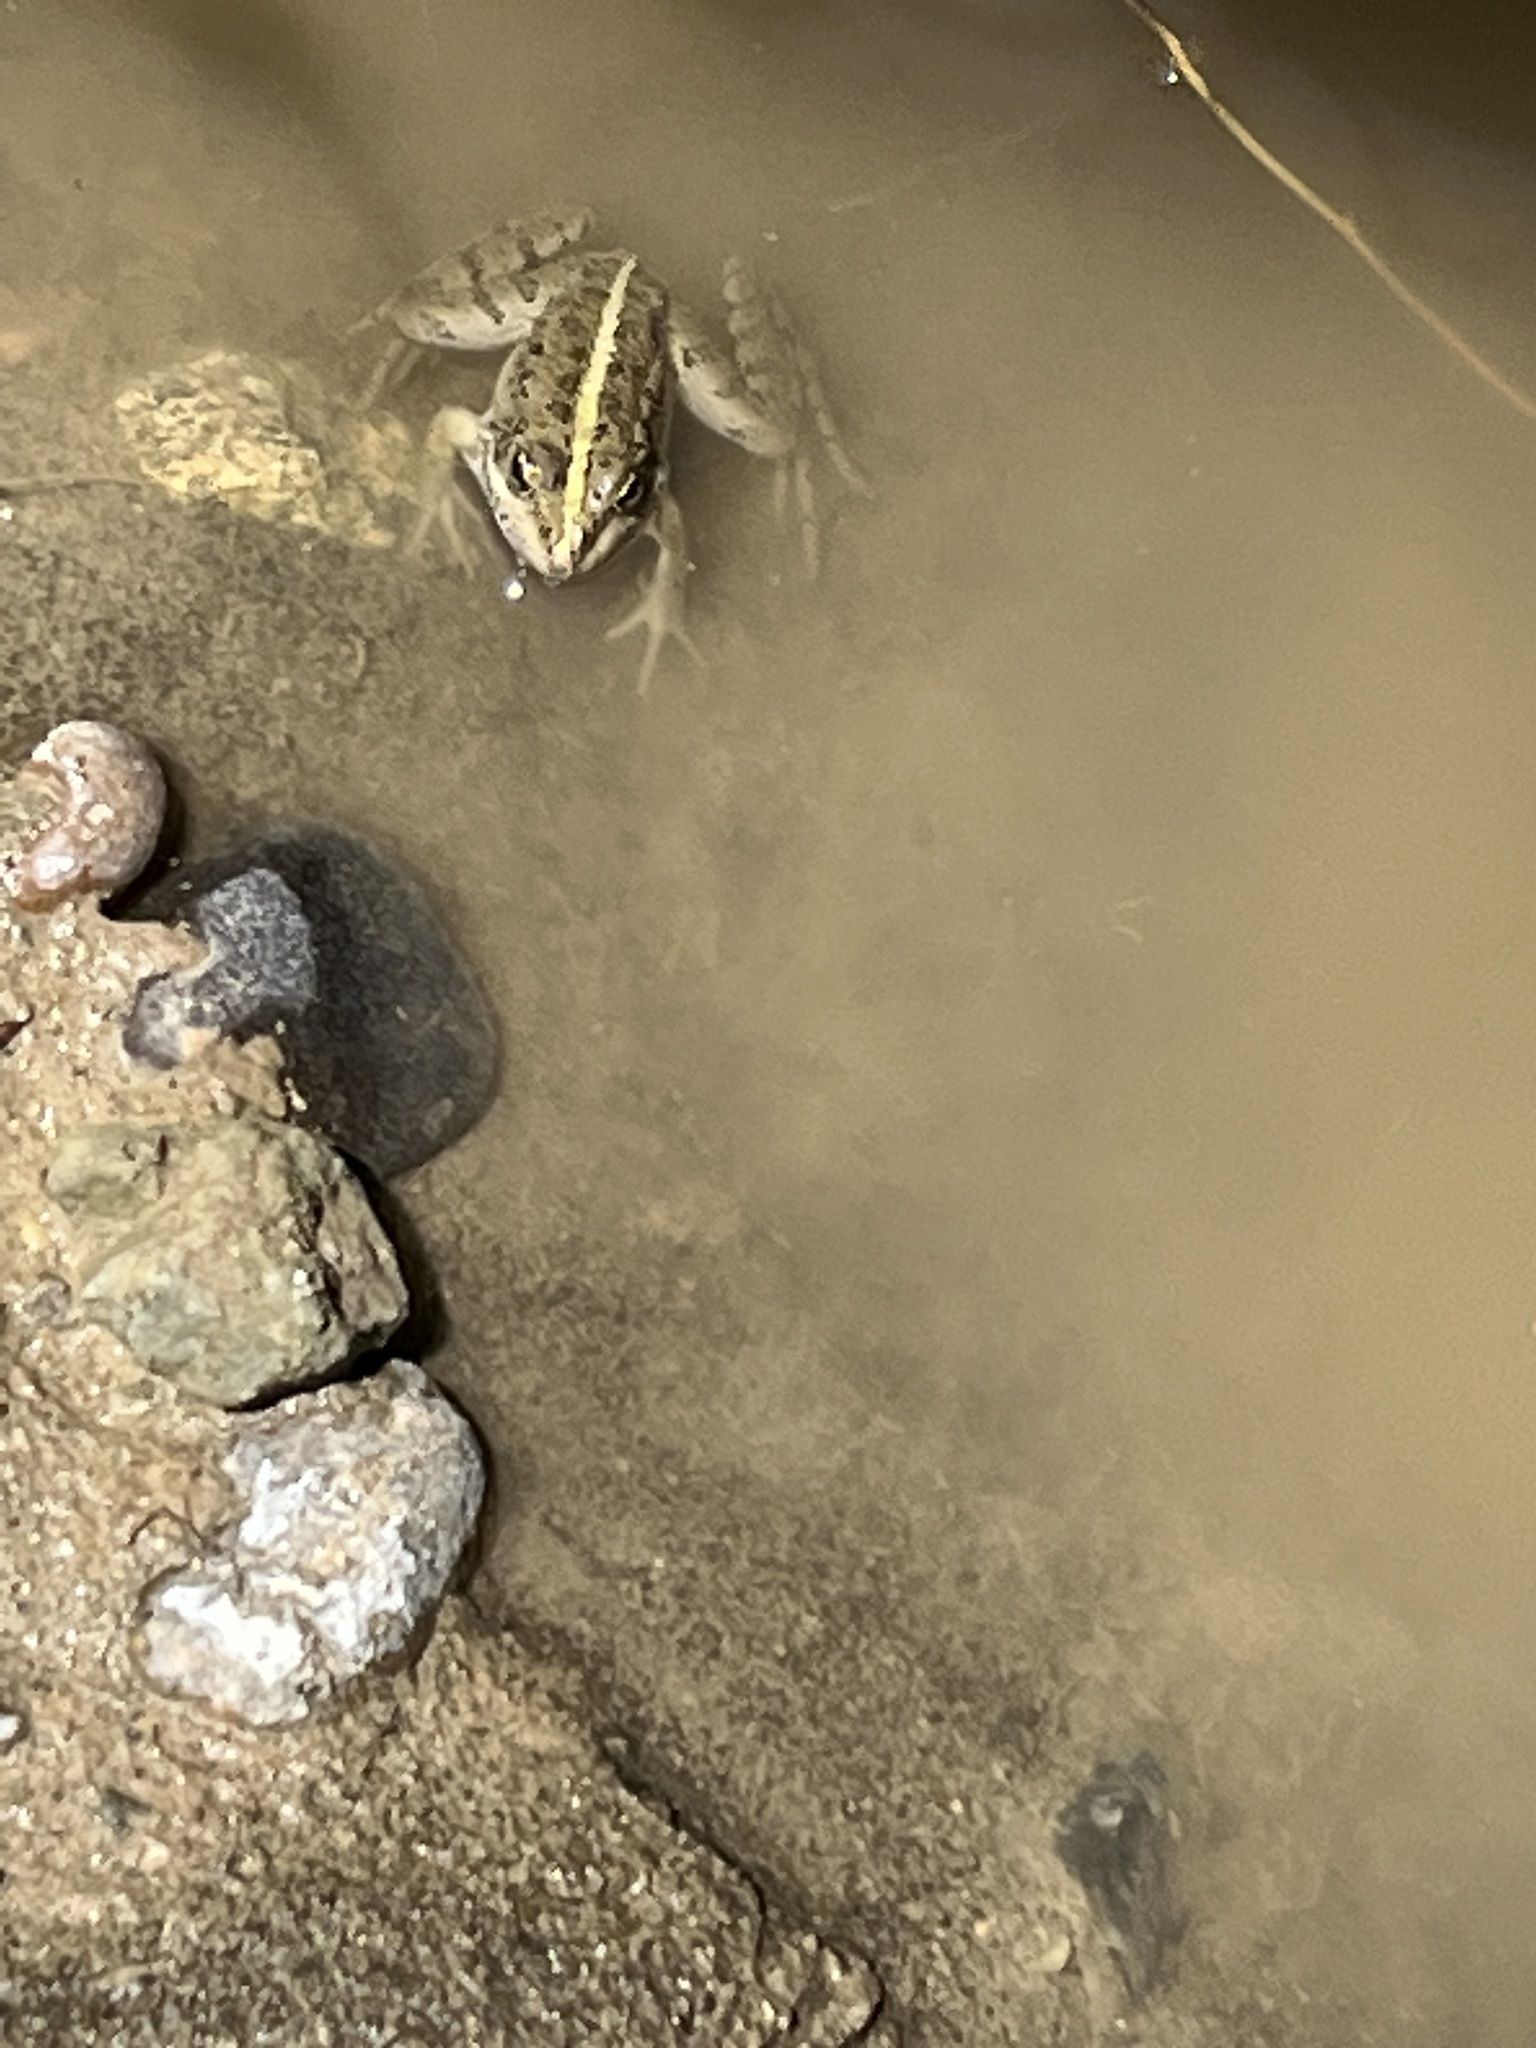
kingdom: Animalia
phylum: Chordata
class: Amphibia
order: Anura
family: Ranidae
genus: Pelophylax
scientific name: Pelophylax ridibundus
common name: Marsh frog
